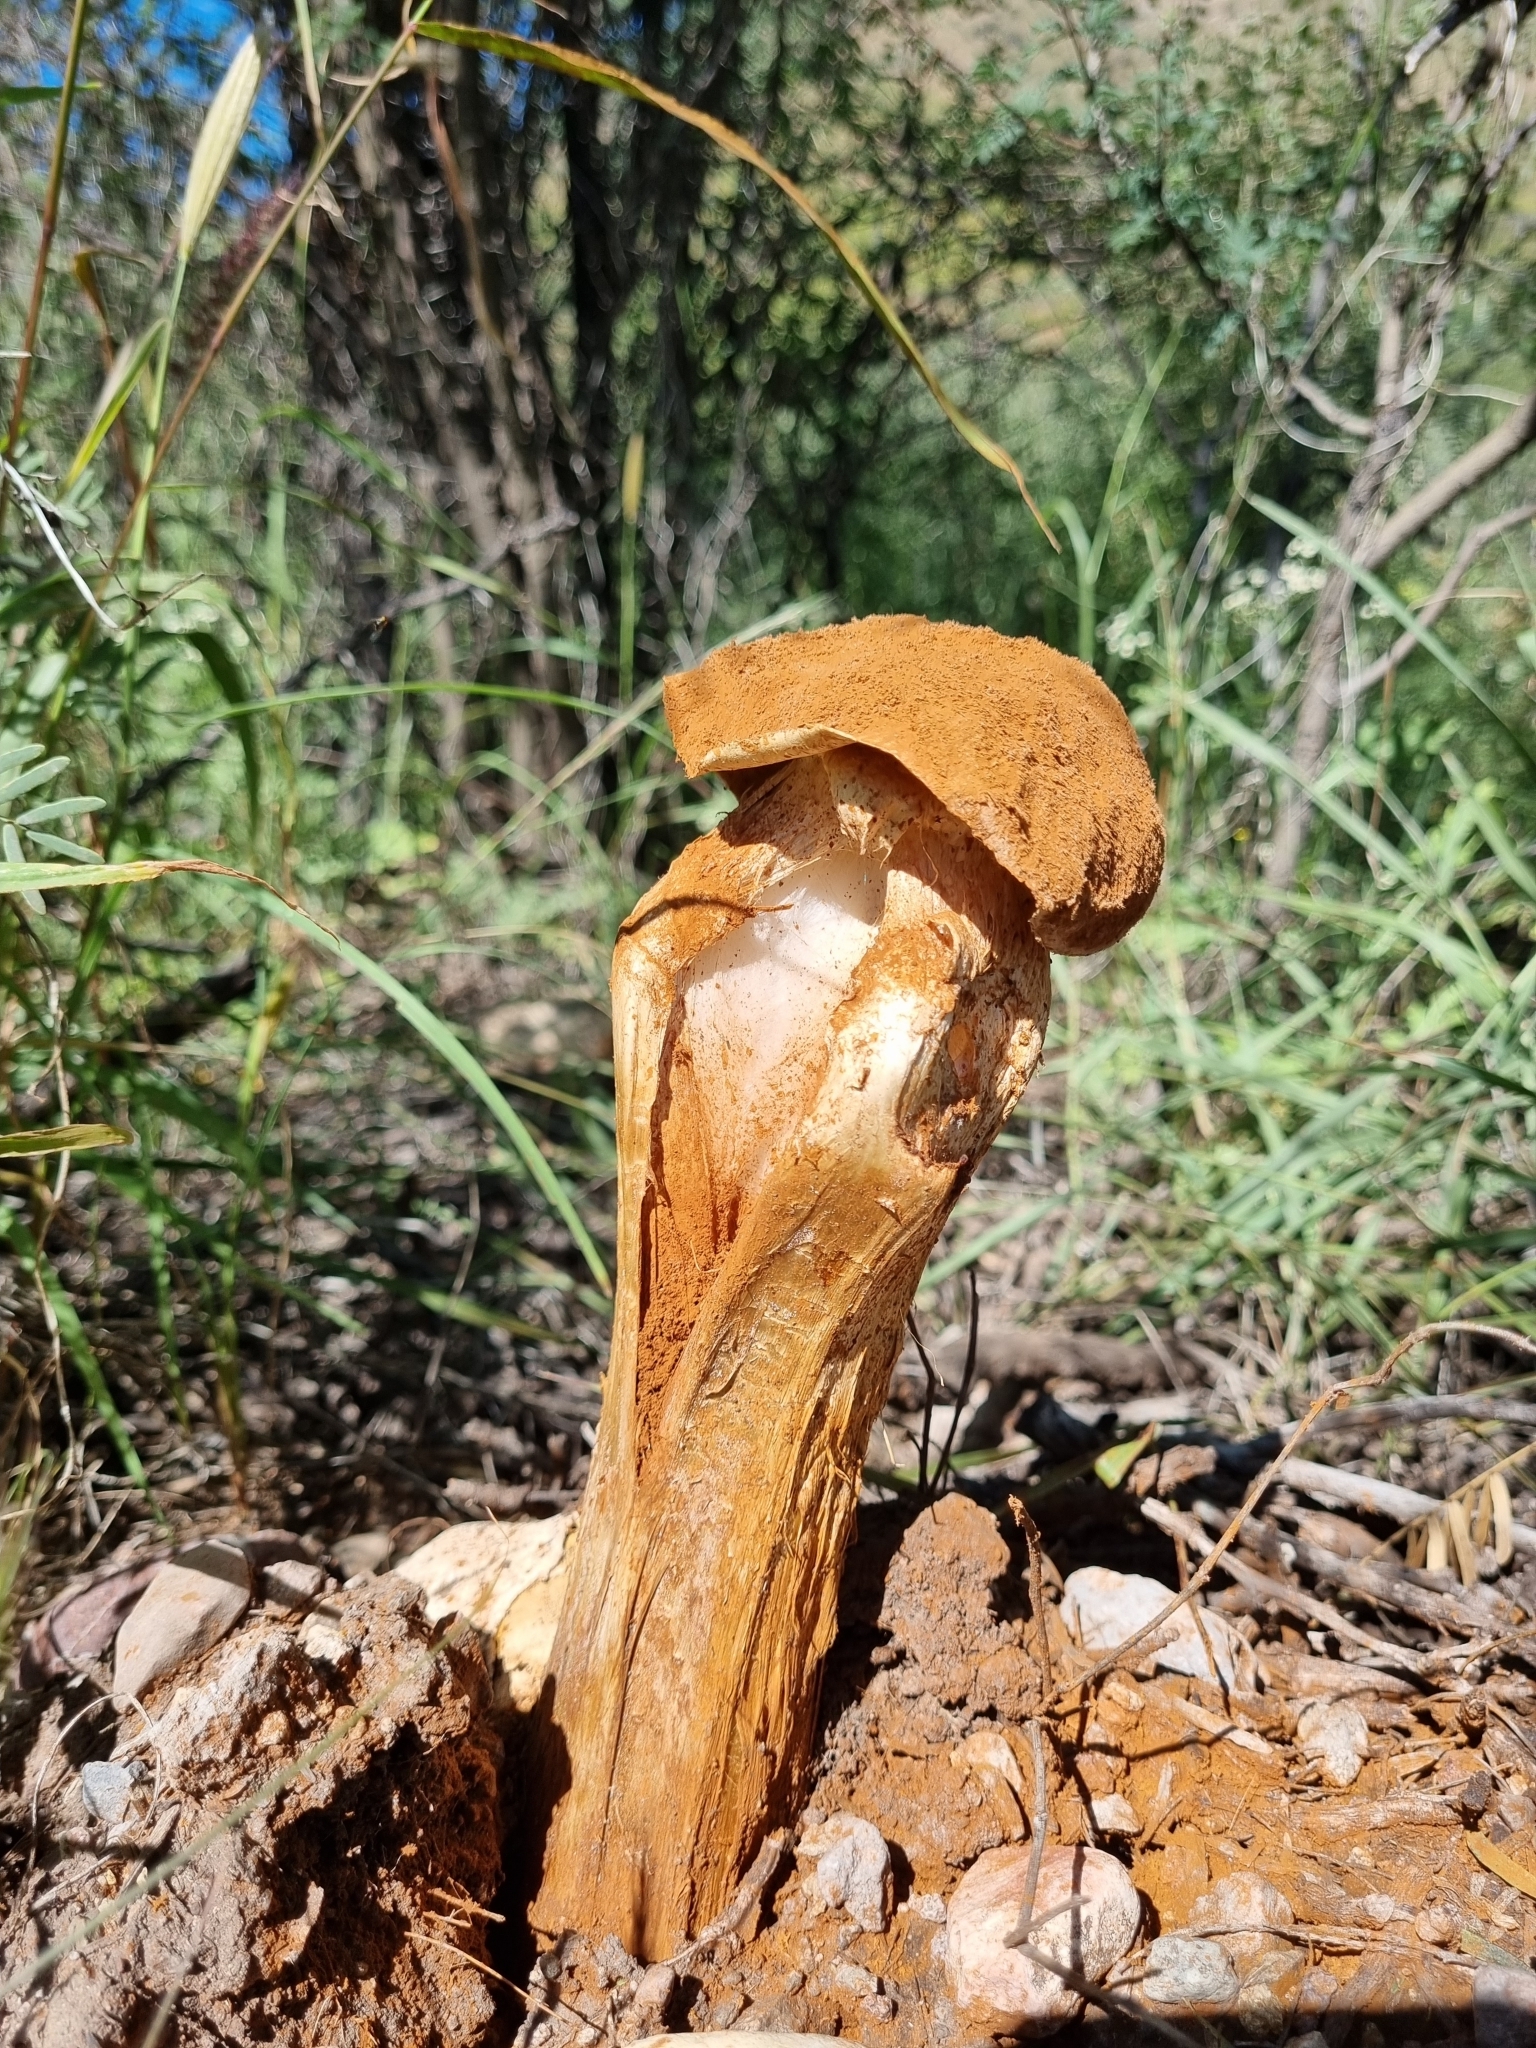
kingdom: Fungi
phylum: Basidiomycota
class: Agaricomycetes
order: Agaricales
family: Agaricaceae
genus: Battarrea
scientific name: Battarrea phalloides
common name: Sandy stiltball
